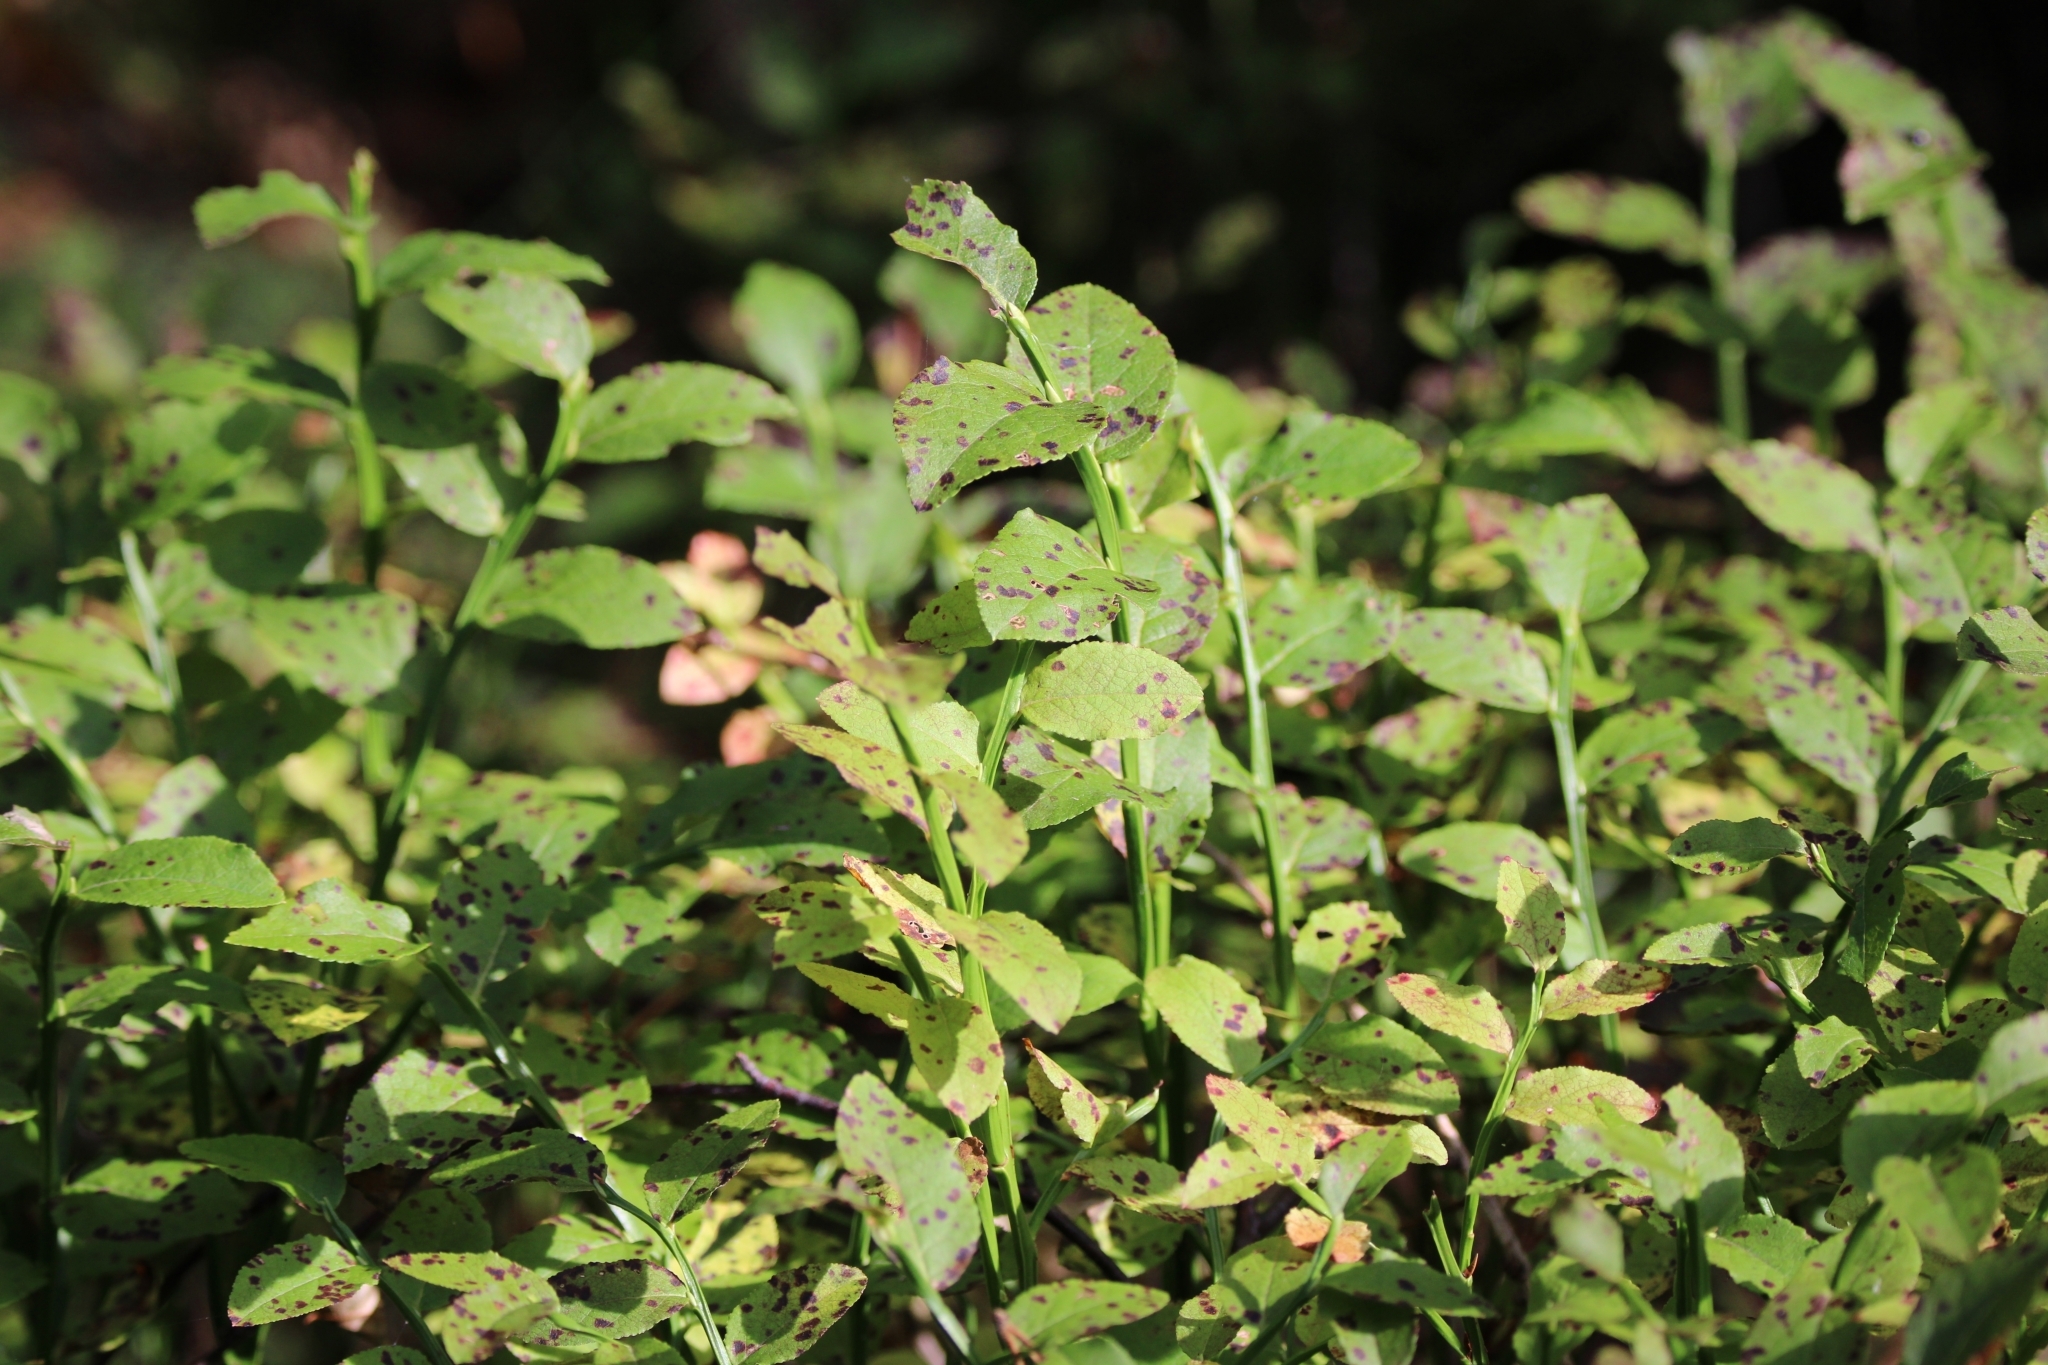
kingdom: Plantae
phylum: Tracheophyta
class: Magnoliopsida
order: Ericales
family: Ericaceae
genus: Vaccinium
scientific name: Vaccinium myrtillus
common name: Bilberry
